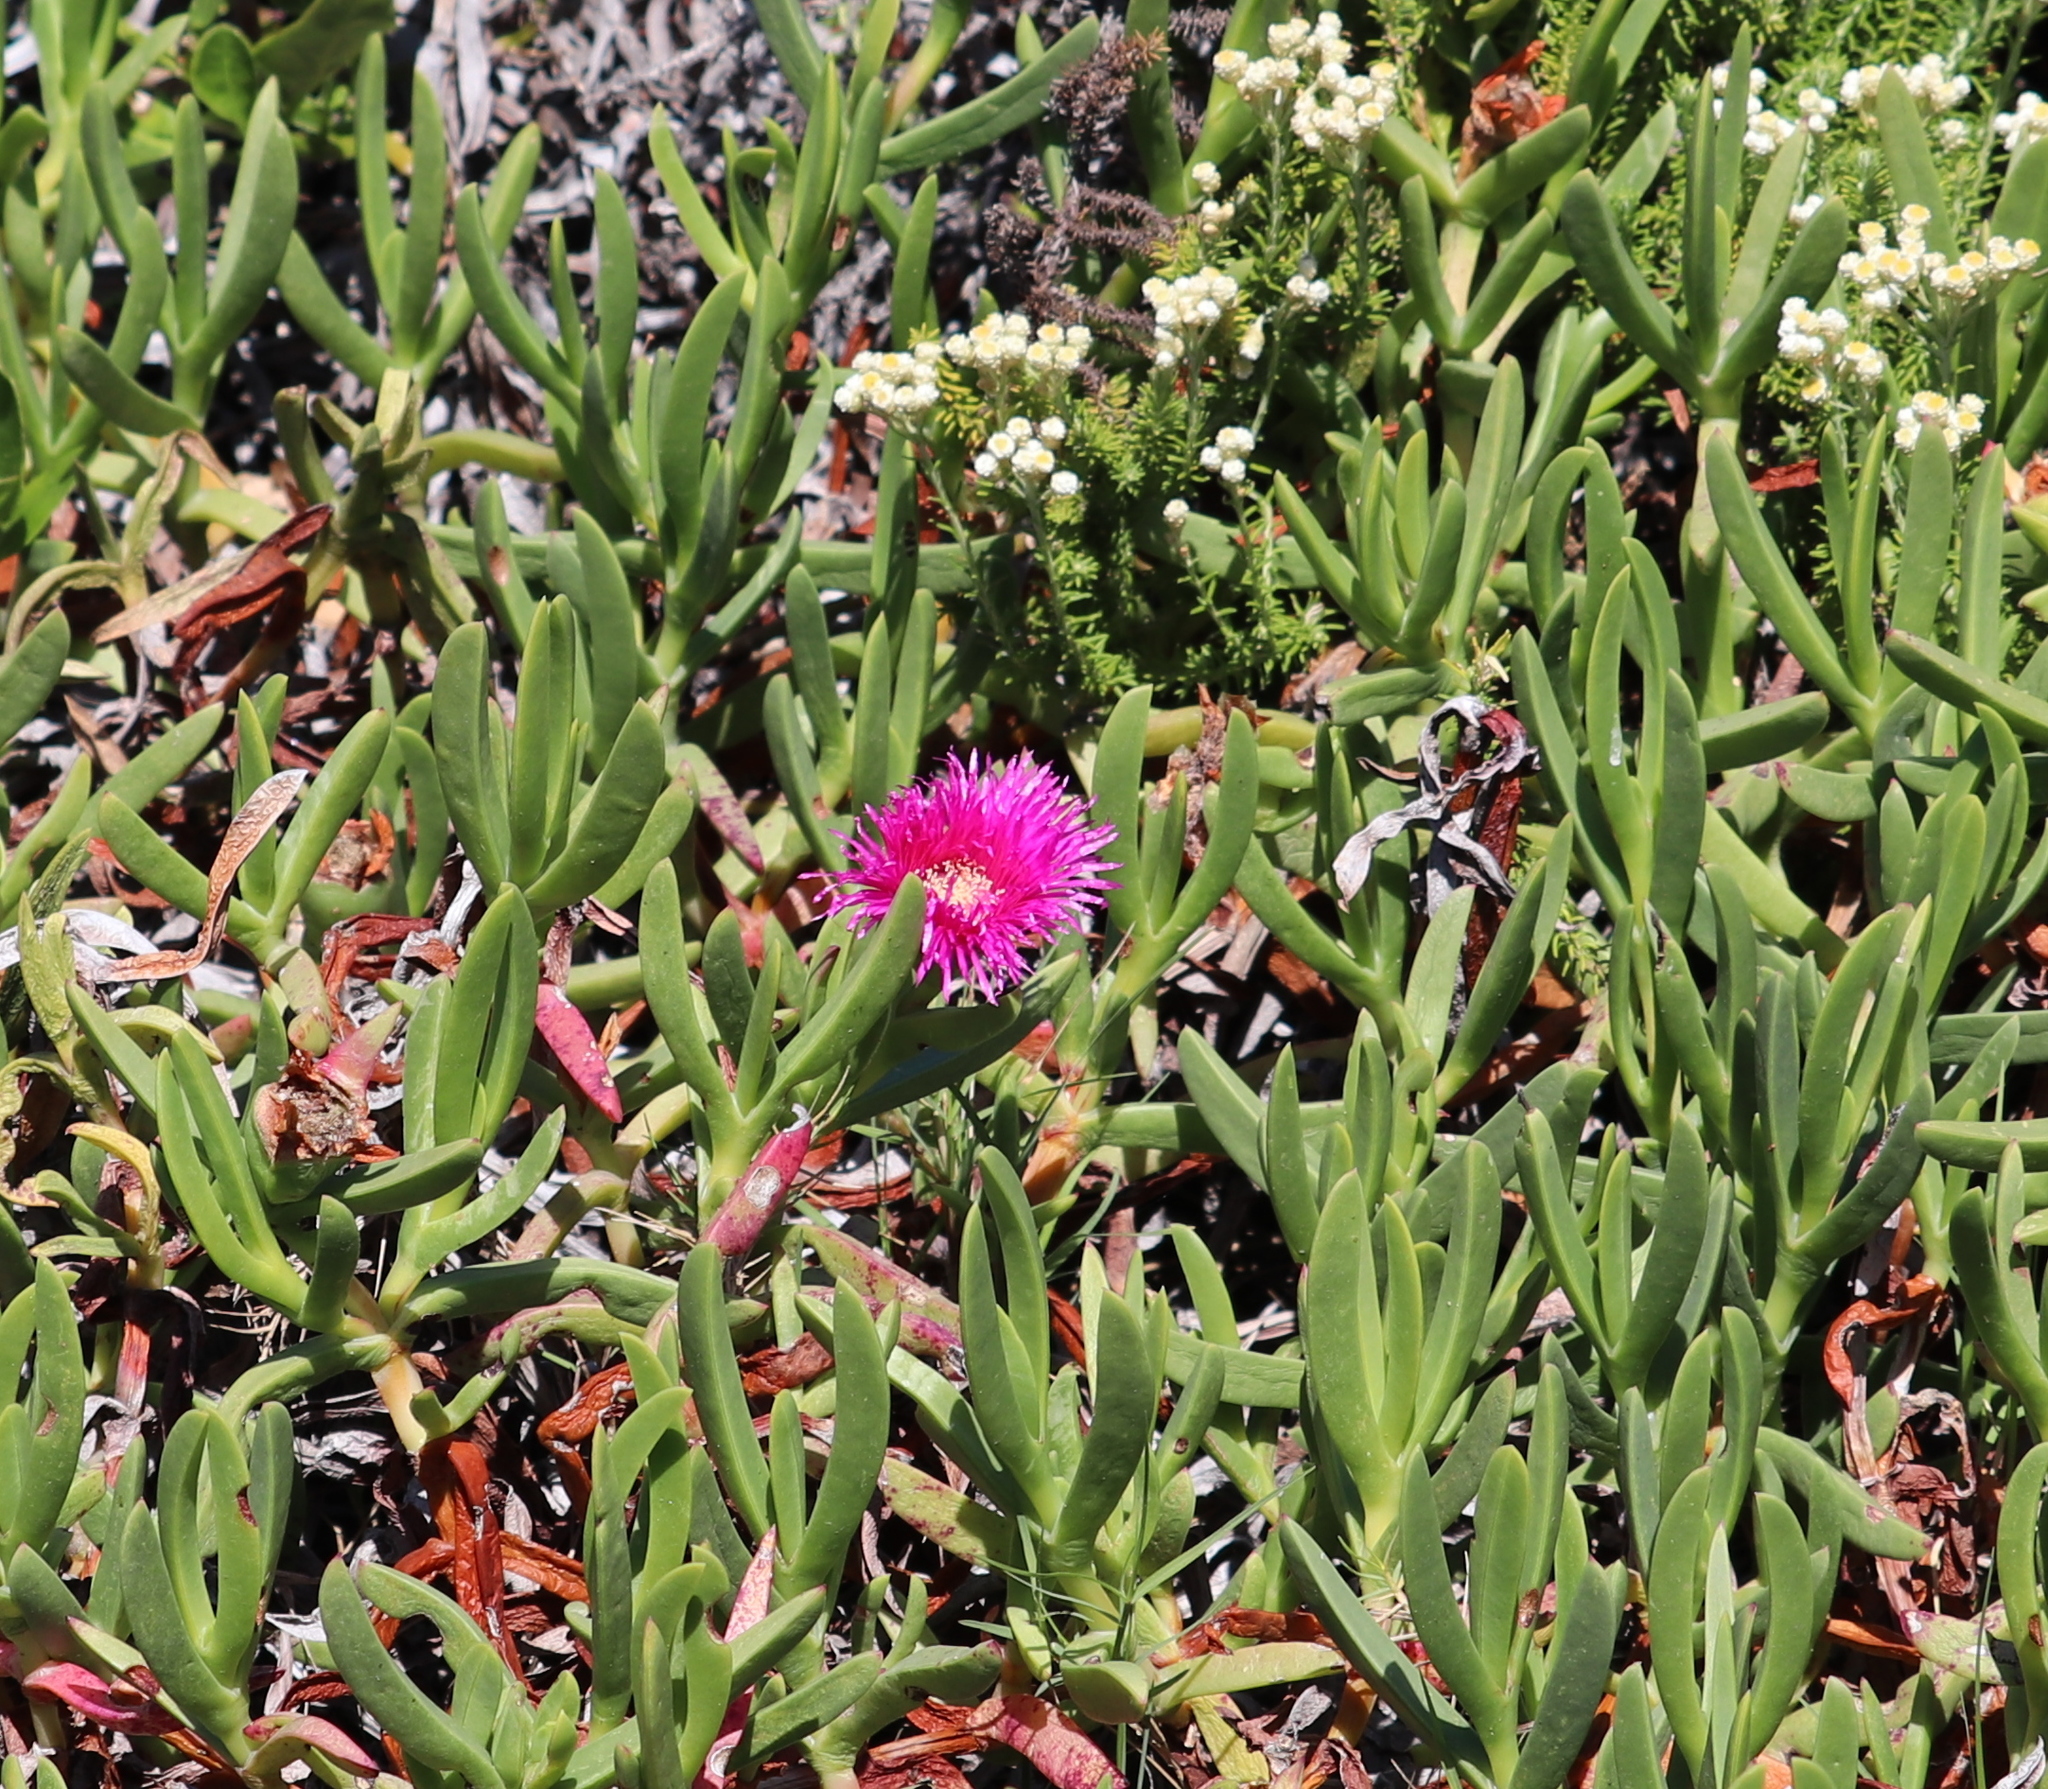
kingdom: Plantae
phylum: Tracheophyta
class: Magnoliopsida
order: Caryophyllales
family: Aizoaceae
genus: Carpobrotus
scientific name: Carpobrotus deliciosus
